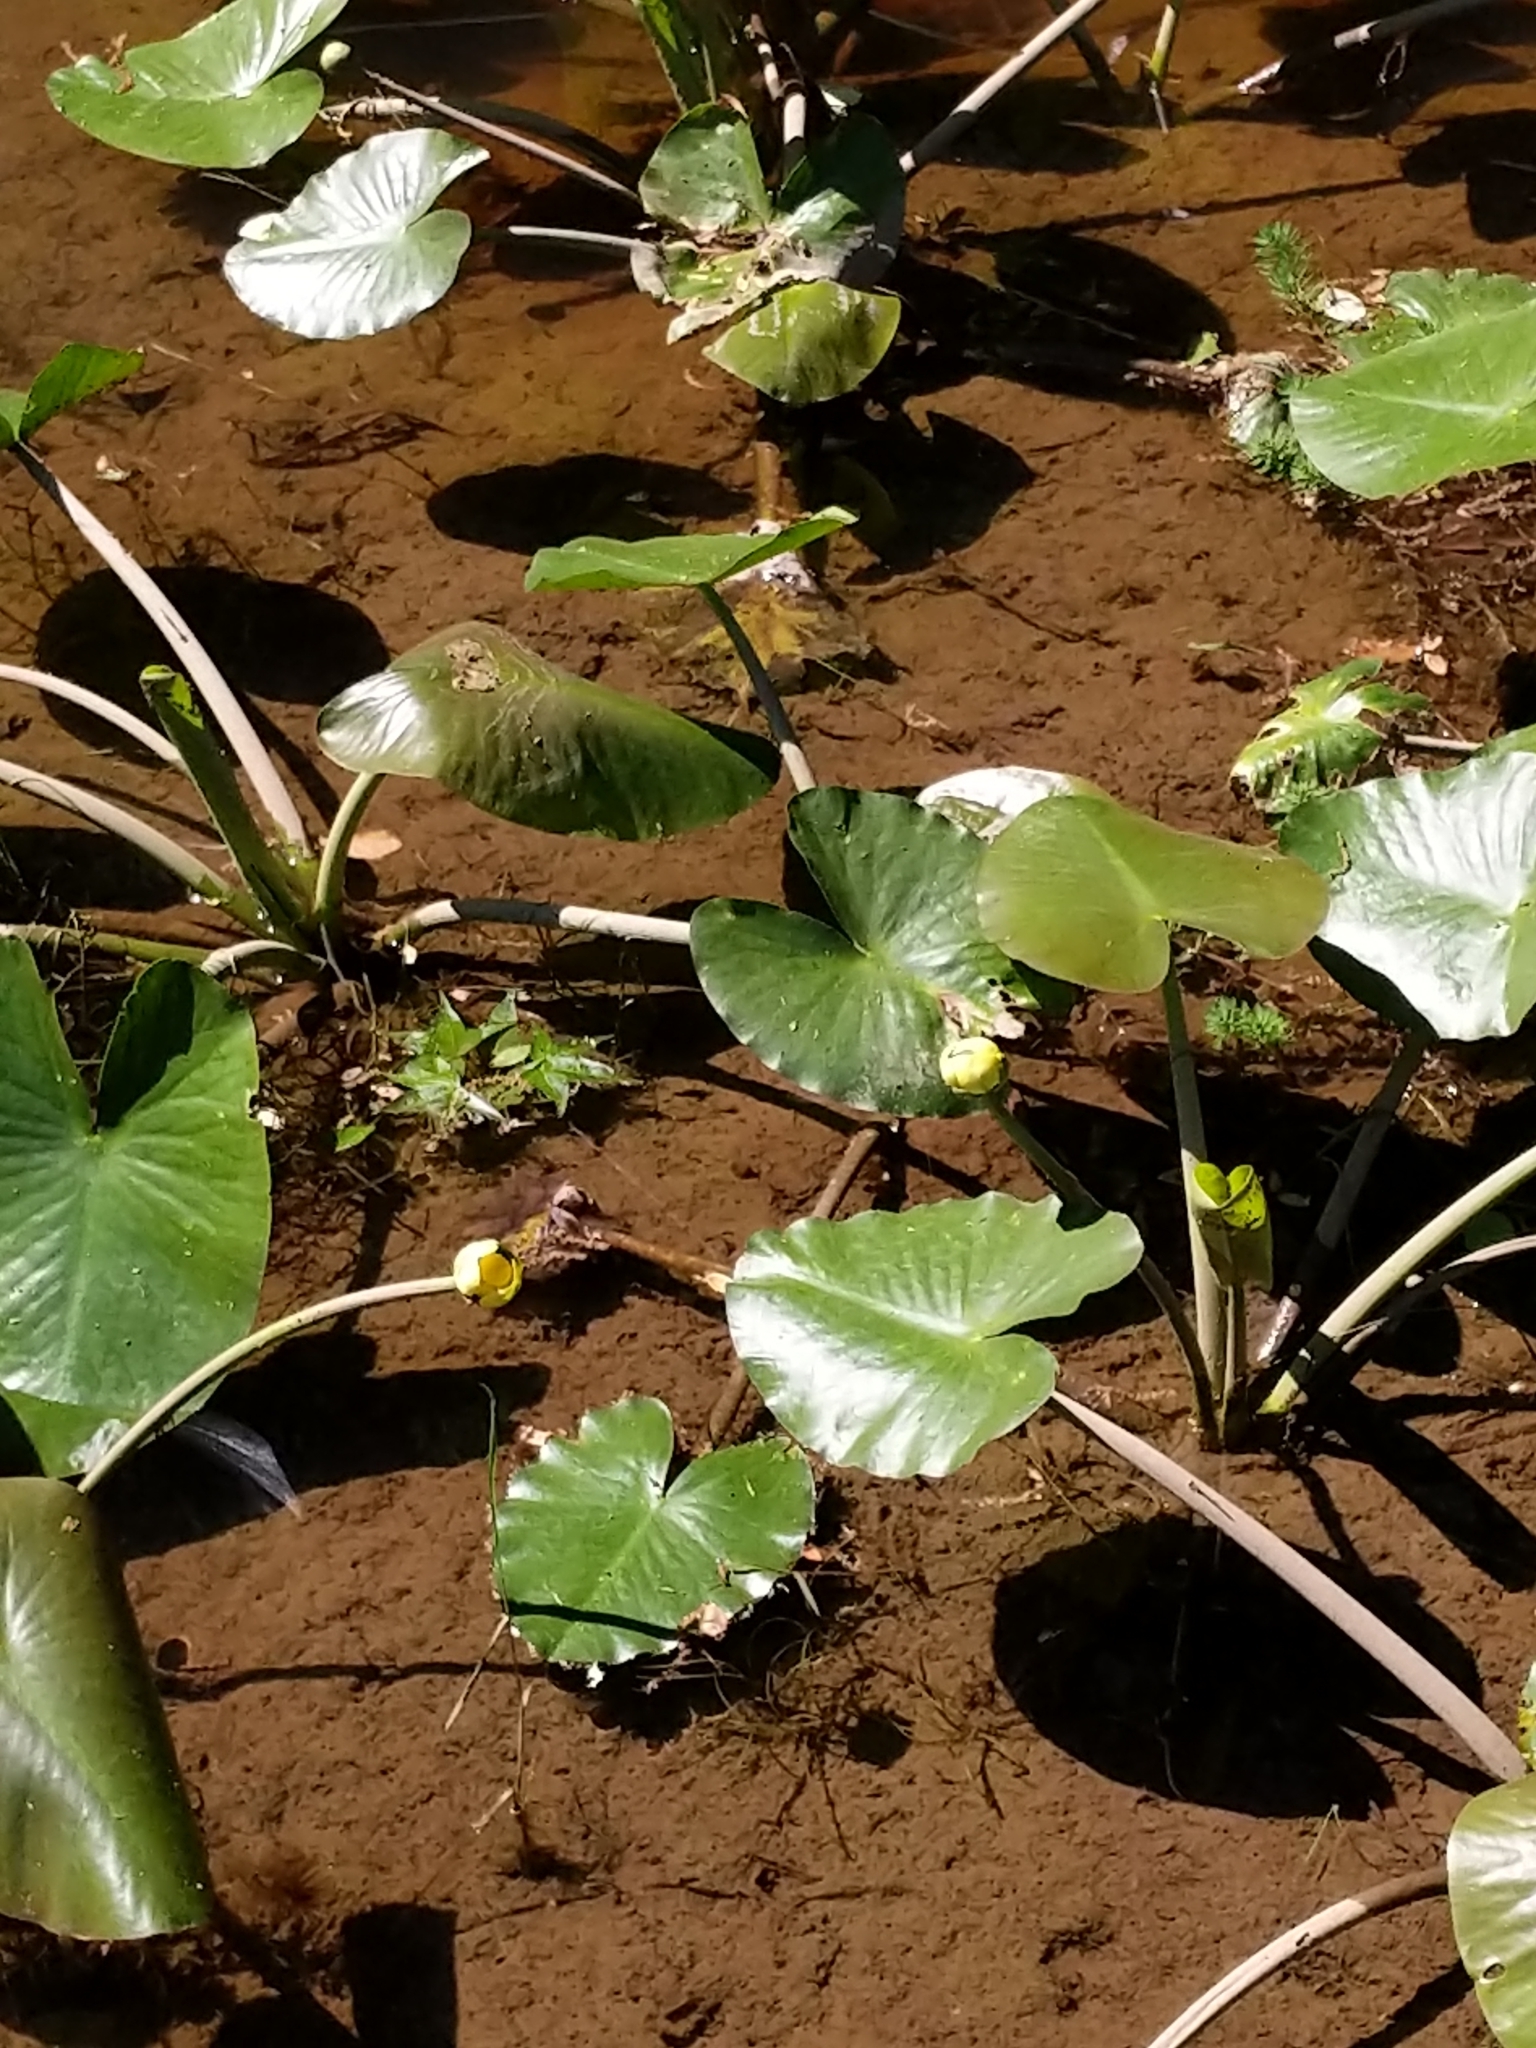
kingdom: Plantae
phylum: Tracheophyta
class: Magnoliopsida
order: Nymphaeales
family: Nymphaeaceae
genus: Nuphar
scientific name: Nuphar advena
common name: Spatter-dock
